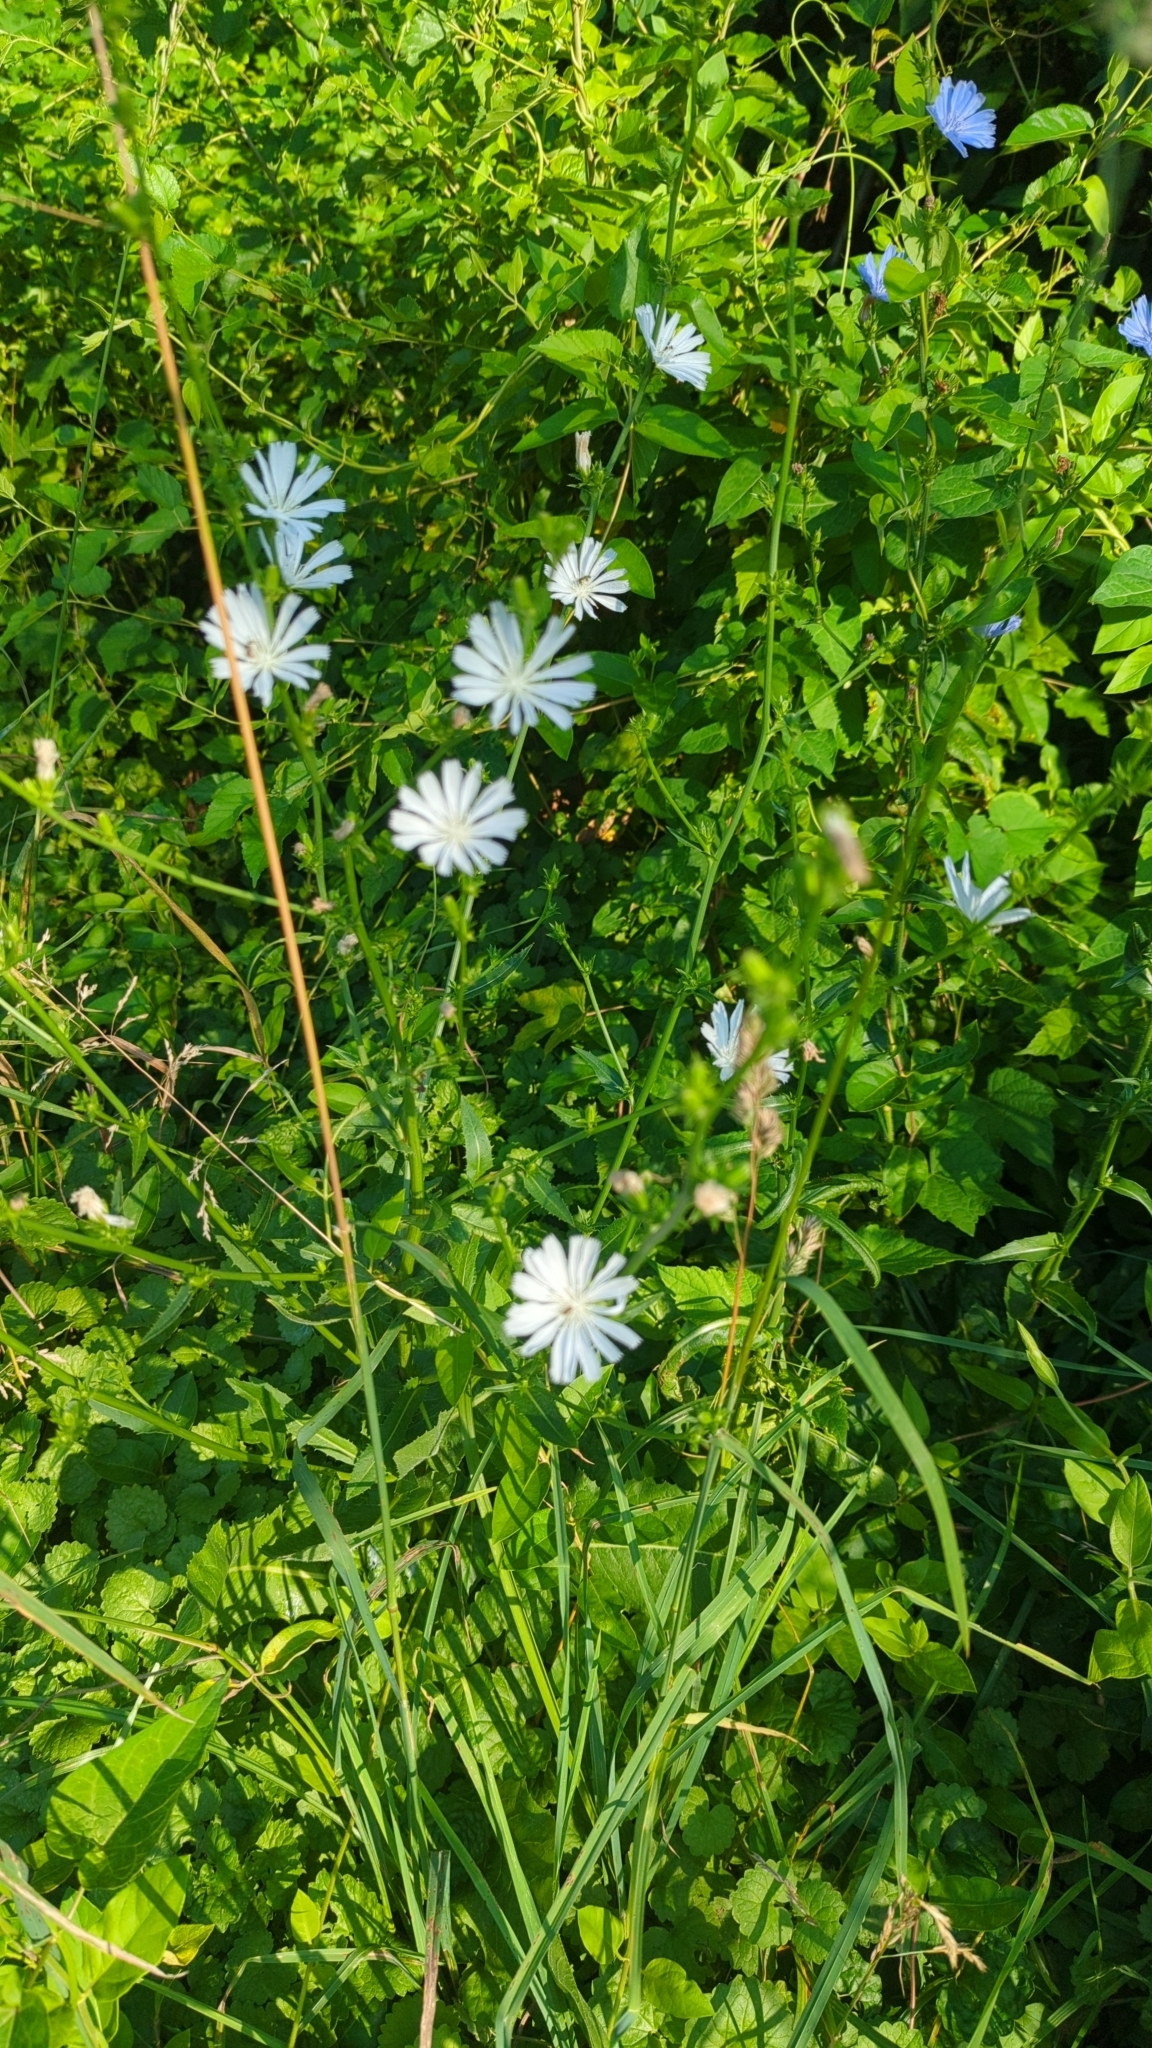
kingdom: Plantae
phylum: Tracheophyta
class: Magnoliopsida
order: Asterales
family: Asteraceae
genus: Cichorium
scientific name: Cichorium intybus
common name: Chicory
